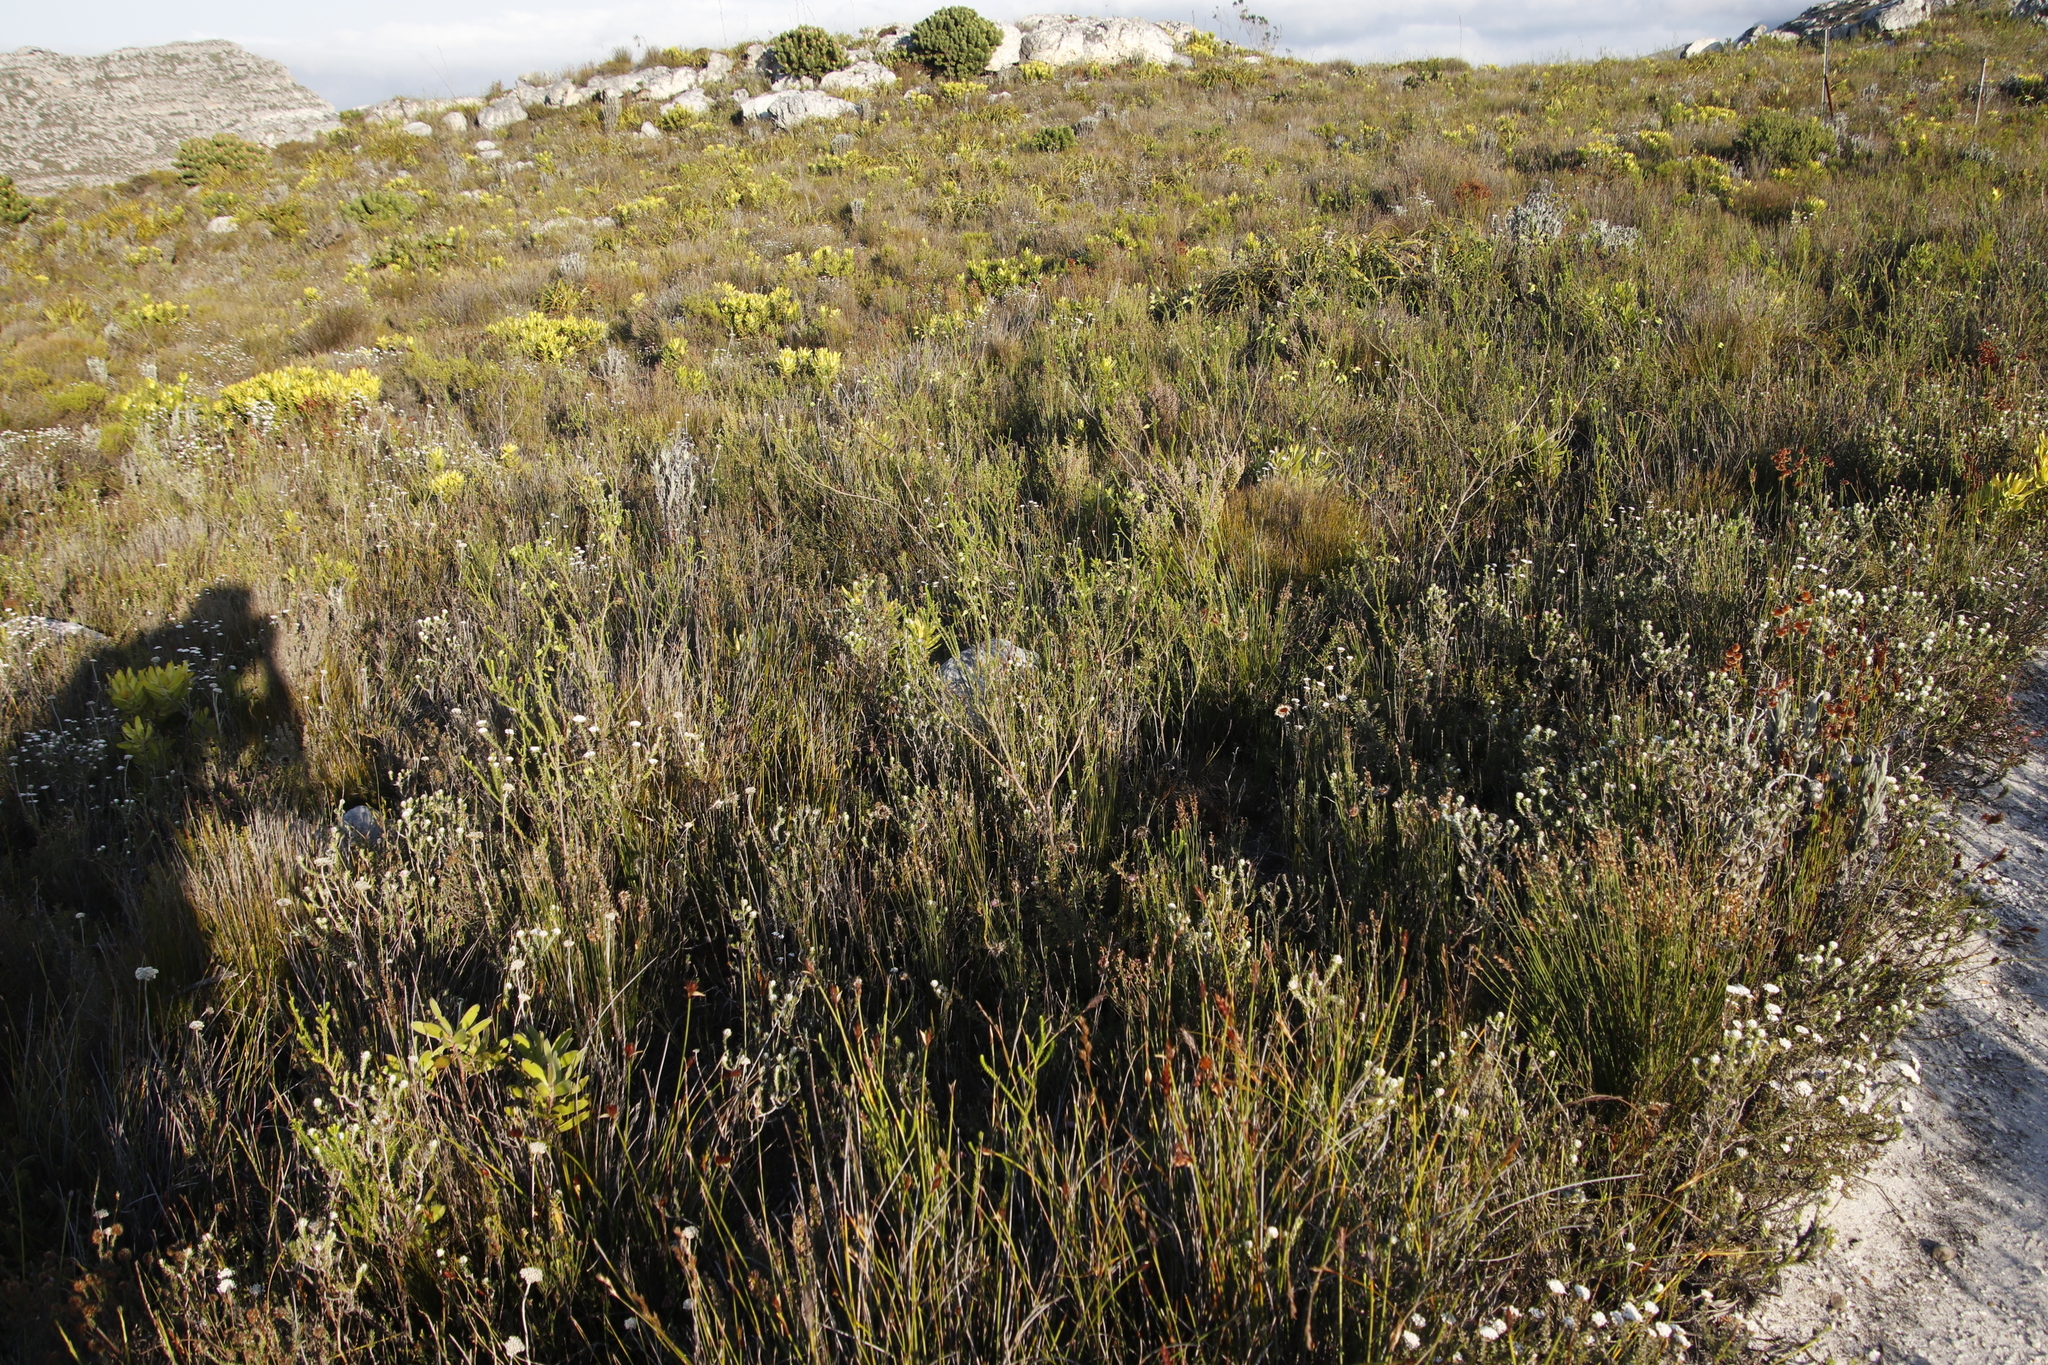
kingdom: Plantae
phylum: Tracheophyta
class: Magnoliopsida
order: Ericales
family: Ericaceae
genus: Erica
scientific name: Erica urna-viridis
